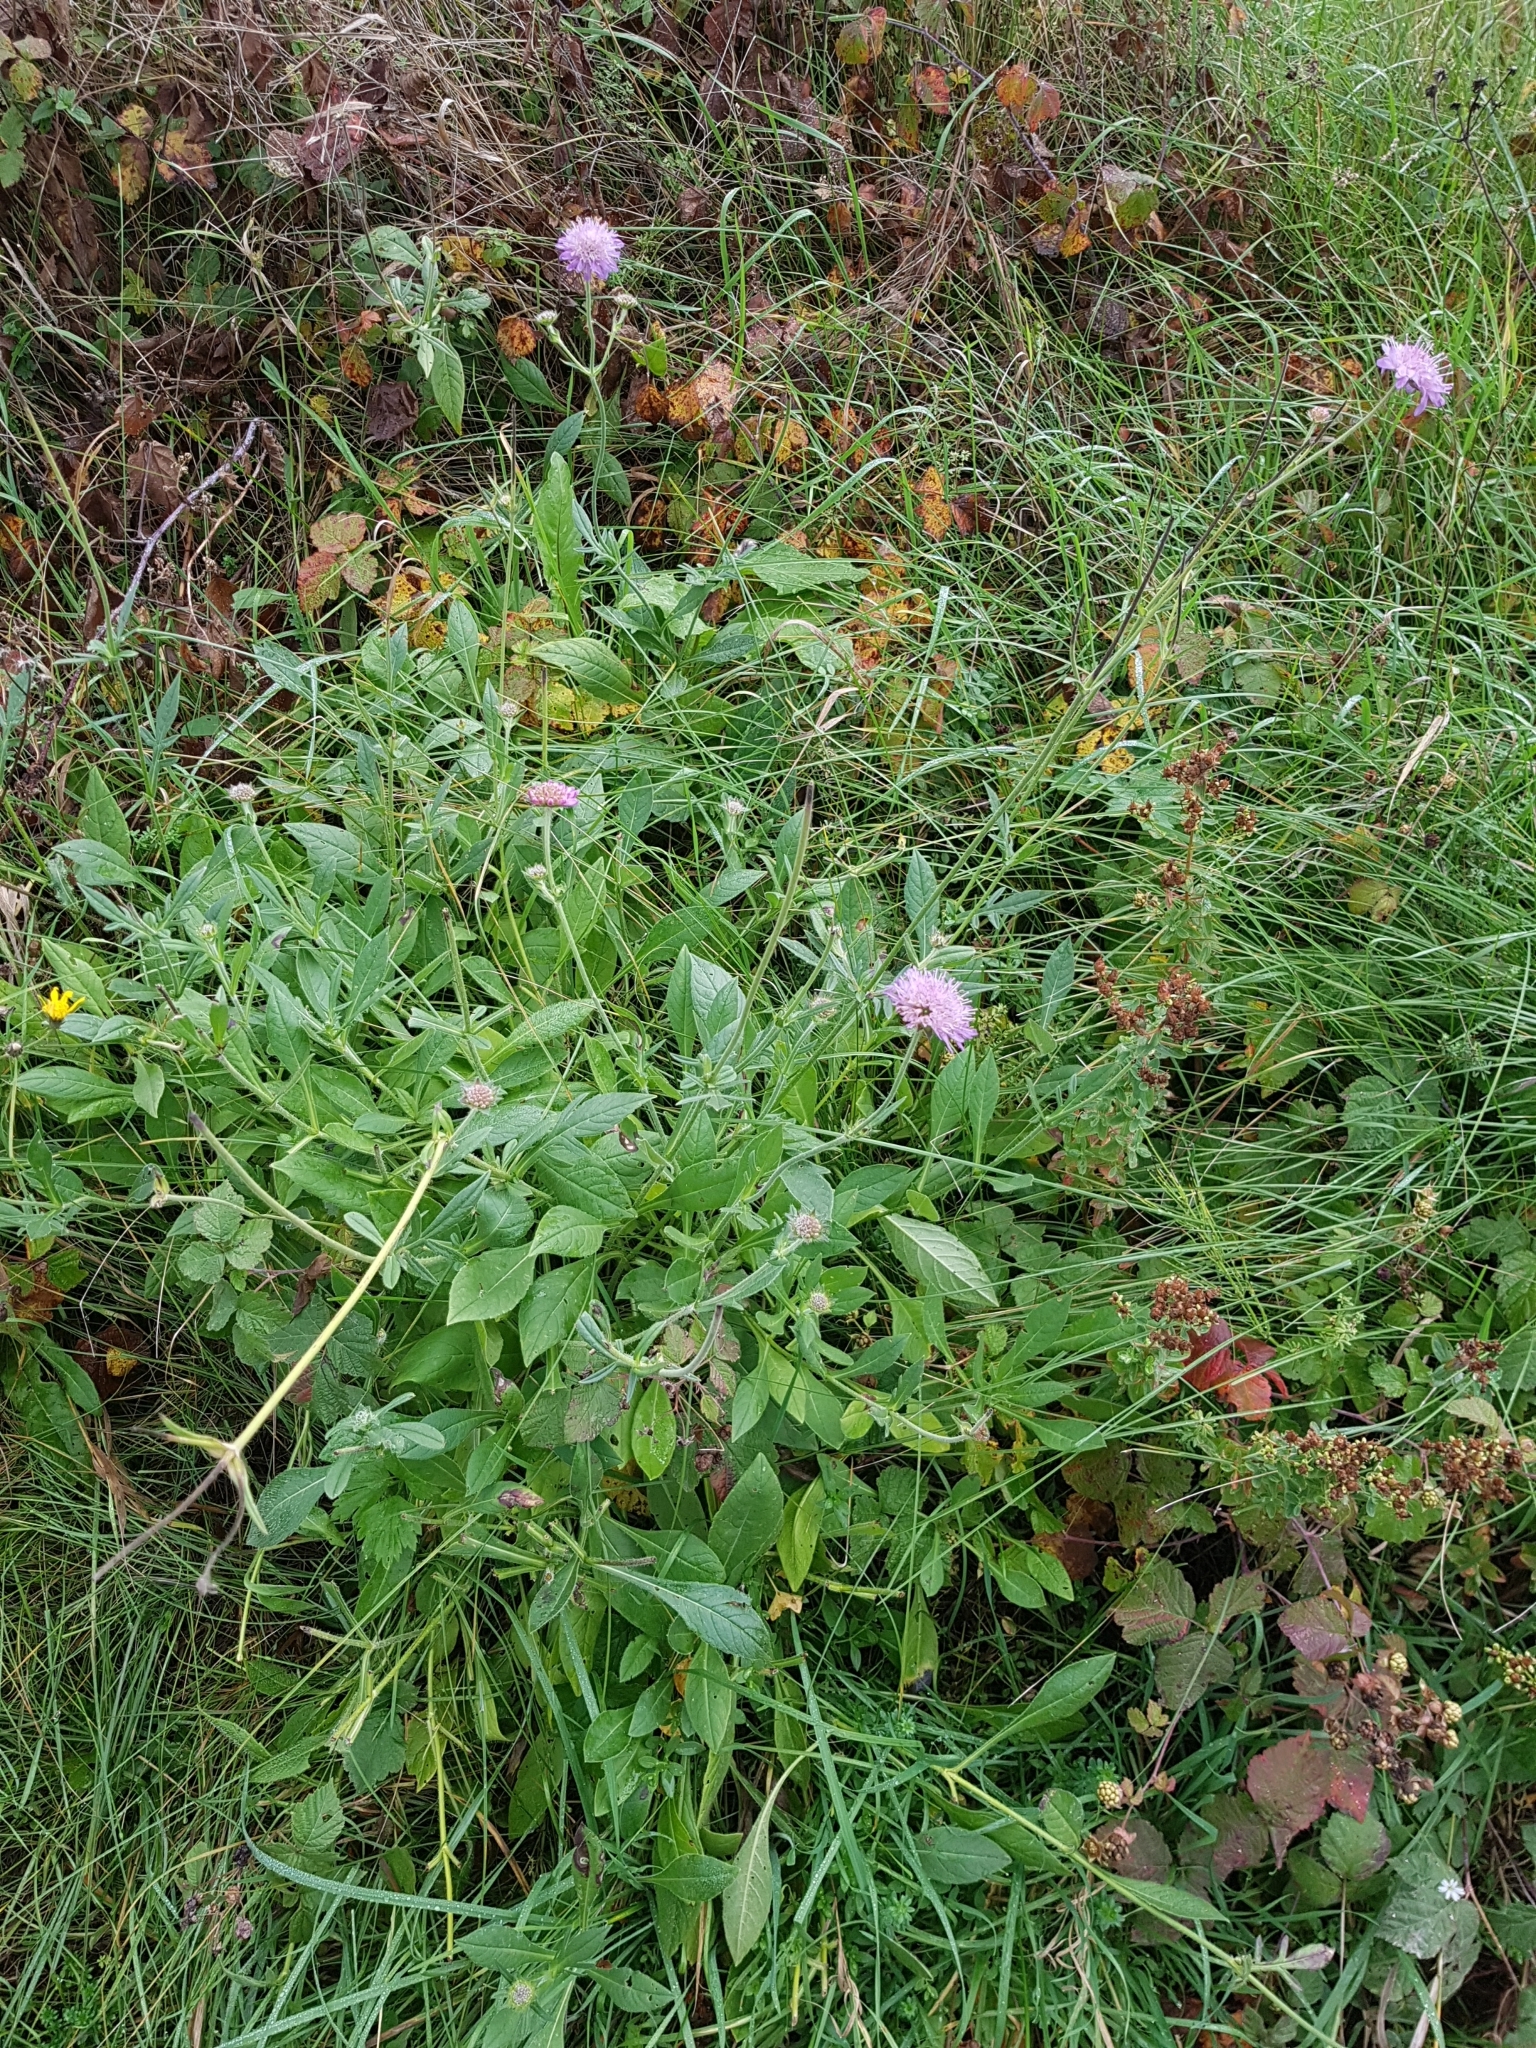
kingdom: Plantae
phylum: Tracheophyta
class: Magnoliopsida
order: Dipsacales
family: Caprifoliaceae
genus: Knautia
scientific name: Knautia arvensis
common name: Field scabiosa
